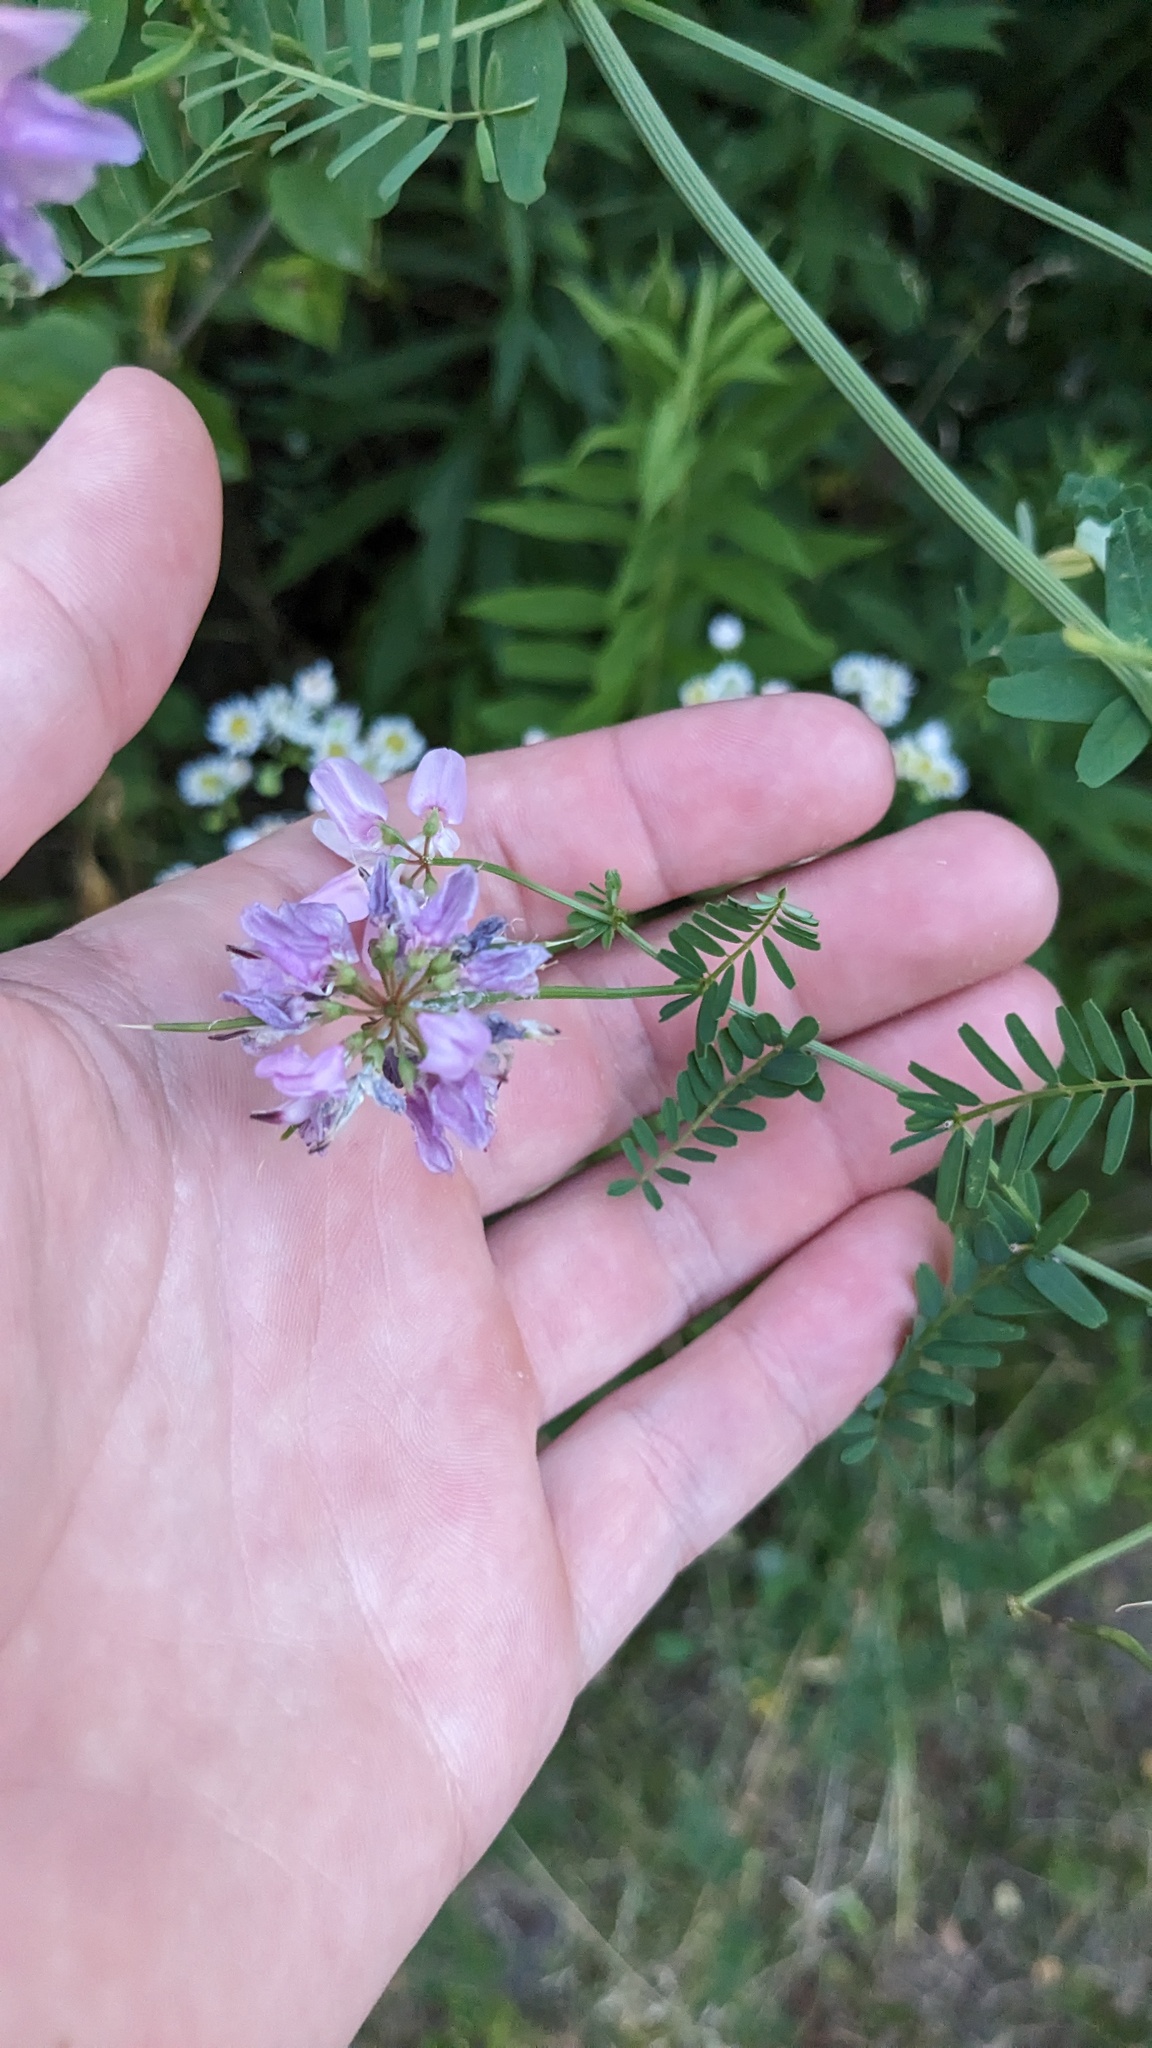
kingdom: Plantae
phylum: Tracheophyta
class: Magnoliopsida
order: Fabales
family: Fabaceae
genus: Coronilla
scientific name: Coronilla varia
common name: Crownvetch
